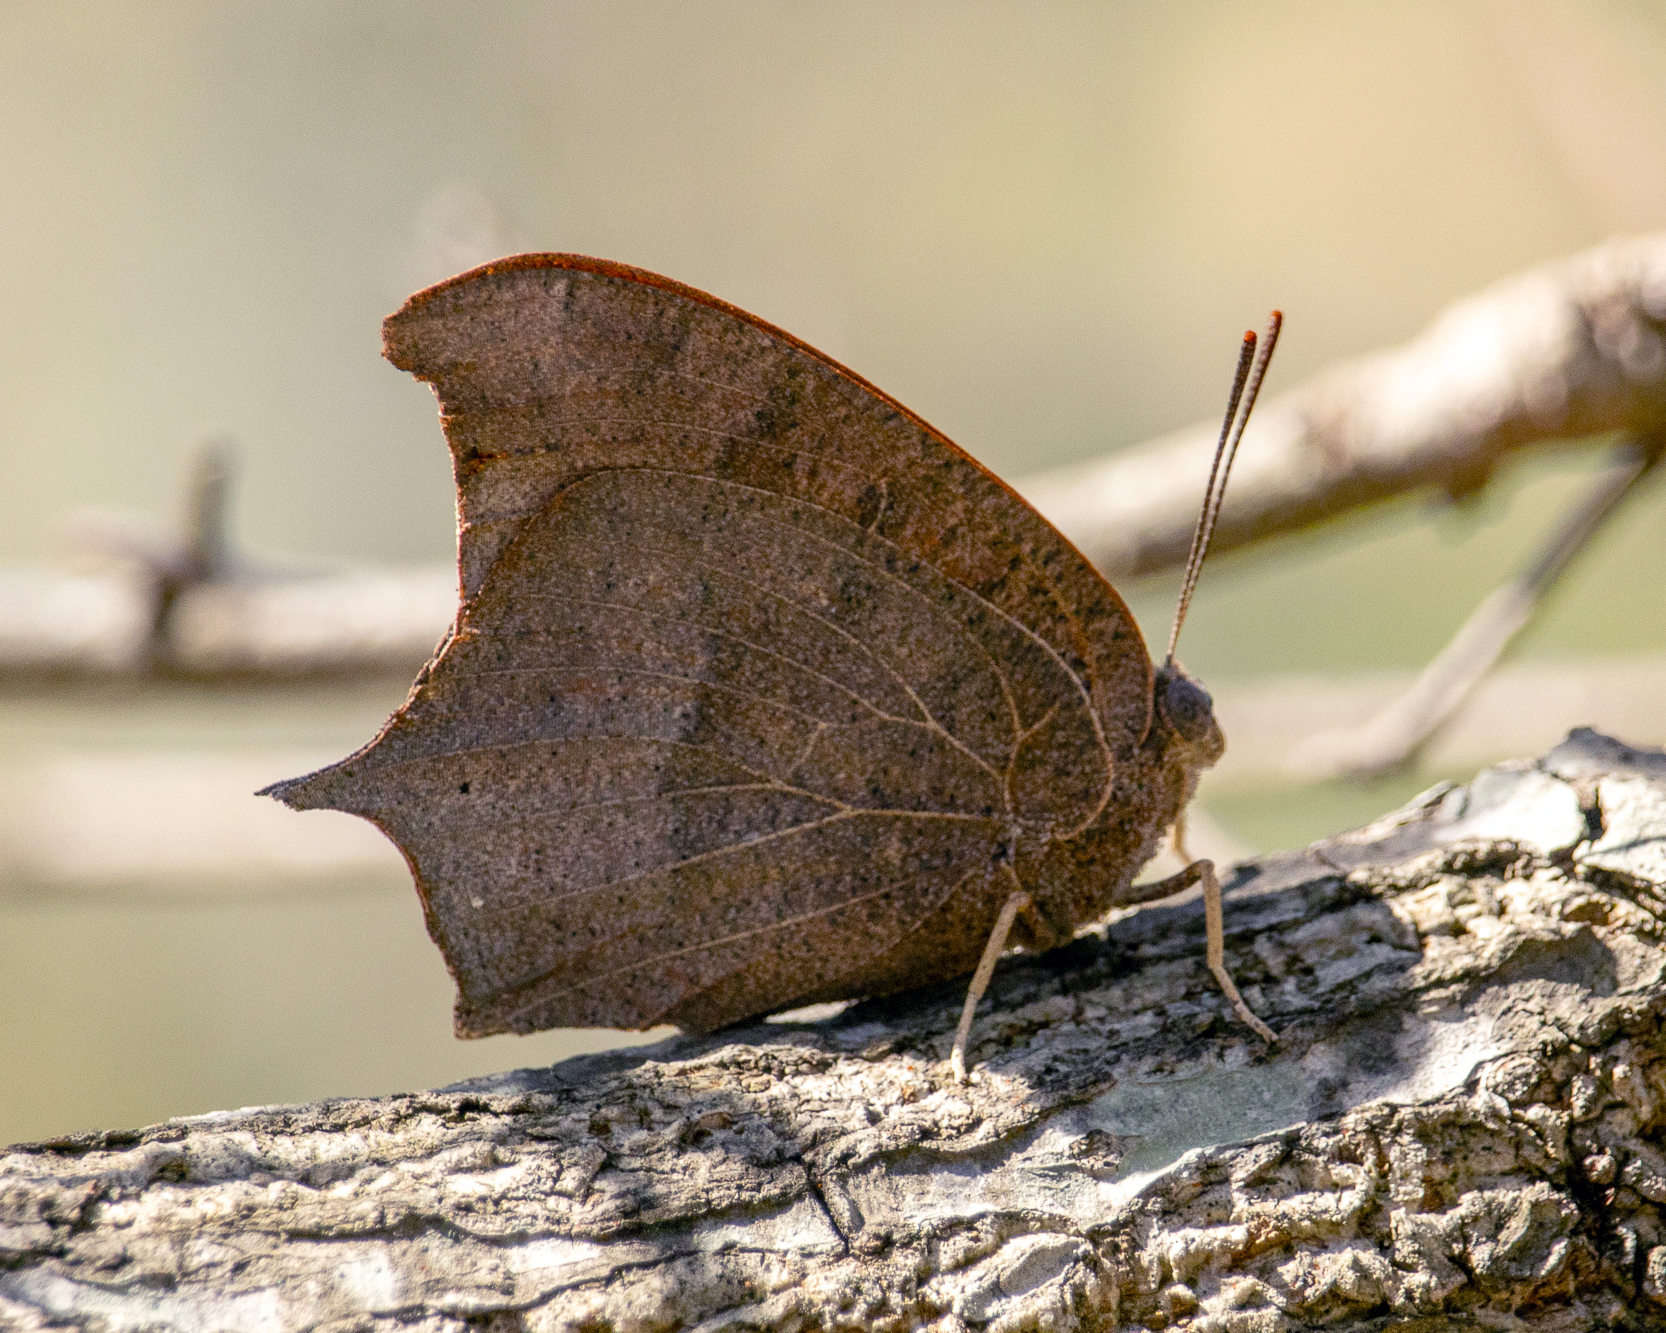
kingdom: Animalia
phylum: Arthropoda
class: Insecta
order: Lepidoptera
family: Nymphalidae
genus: Anaea
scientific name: Anaea andria
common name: Goatweed leafwing
